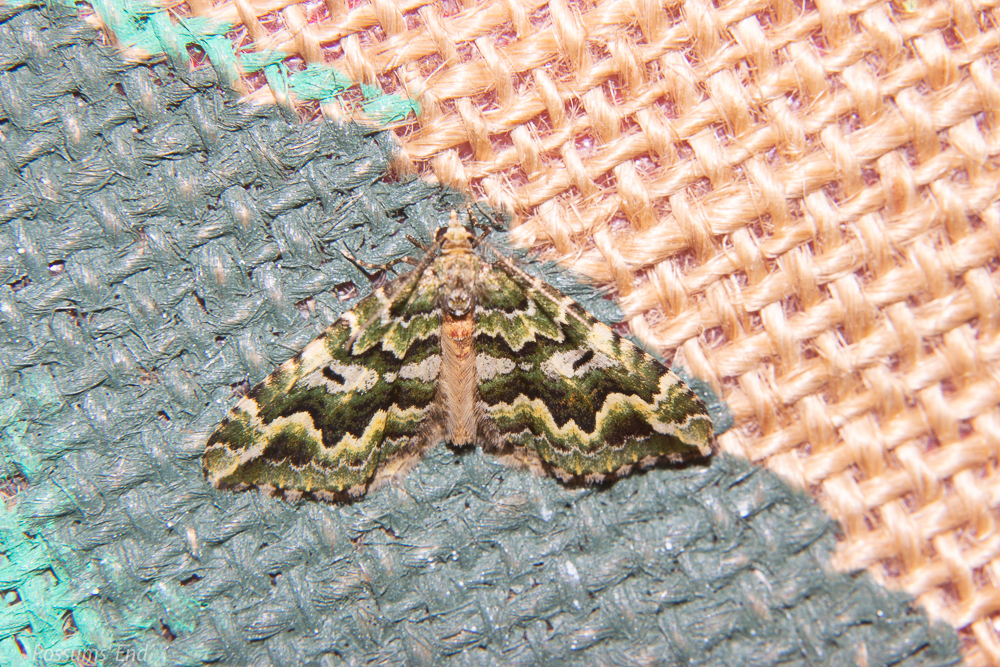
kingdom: Animalia
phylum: Arthropoda
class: Insecta
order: Lepidoptera
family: Geometridae
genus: Asaphodes
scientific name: Asaphodes beata
